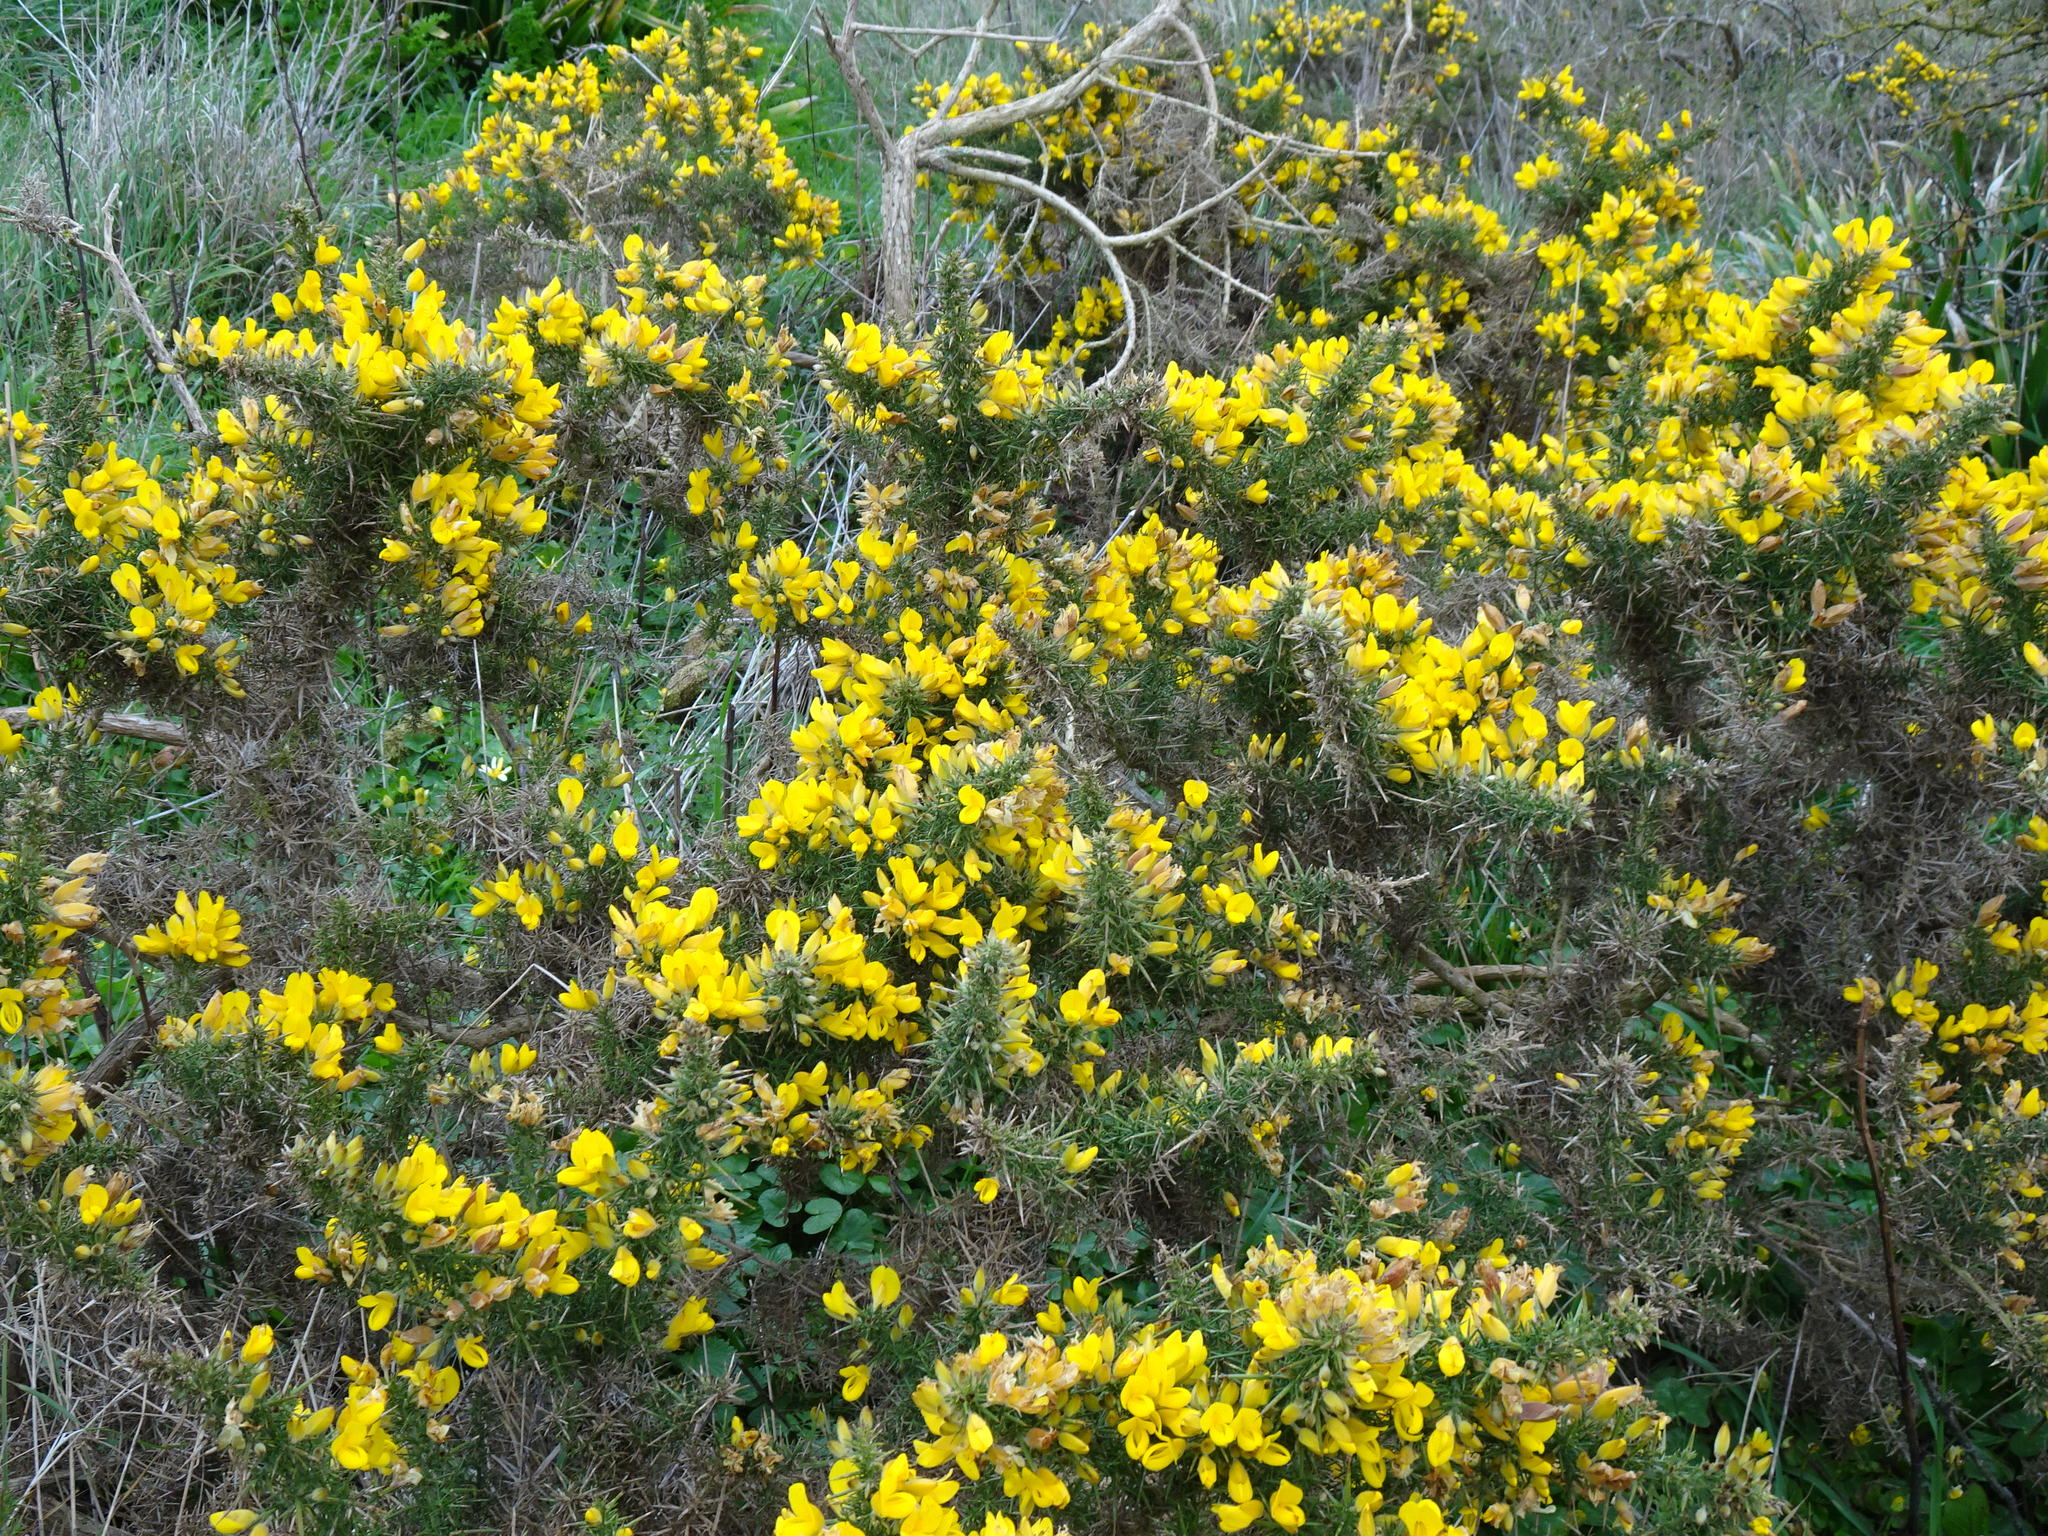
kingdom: Plantae
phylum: Tracheophyta
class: Magnoliopsida
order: Fabales
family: Fabaceae
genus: Ulex
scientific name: Ulex europaeus
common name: Common gorse
